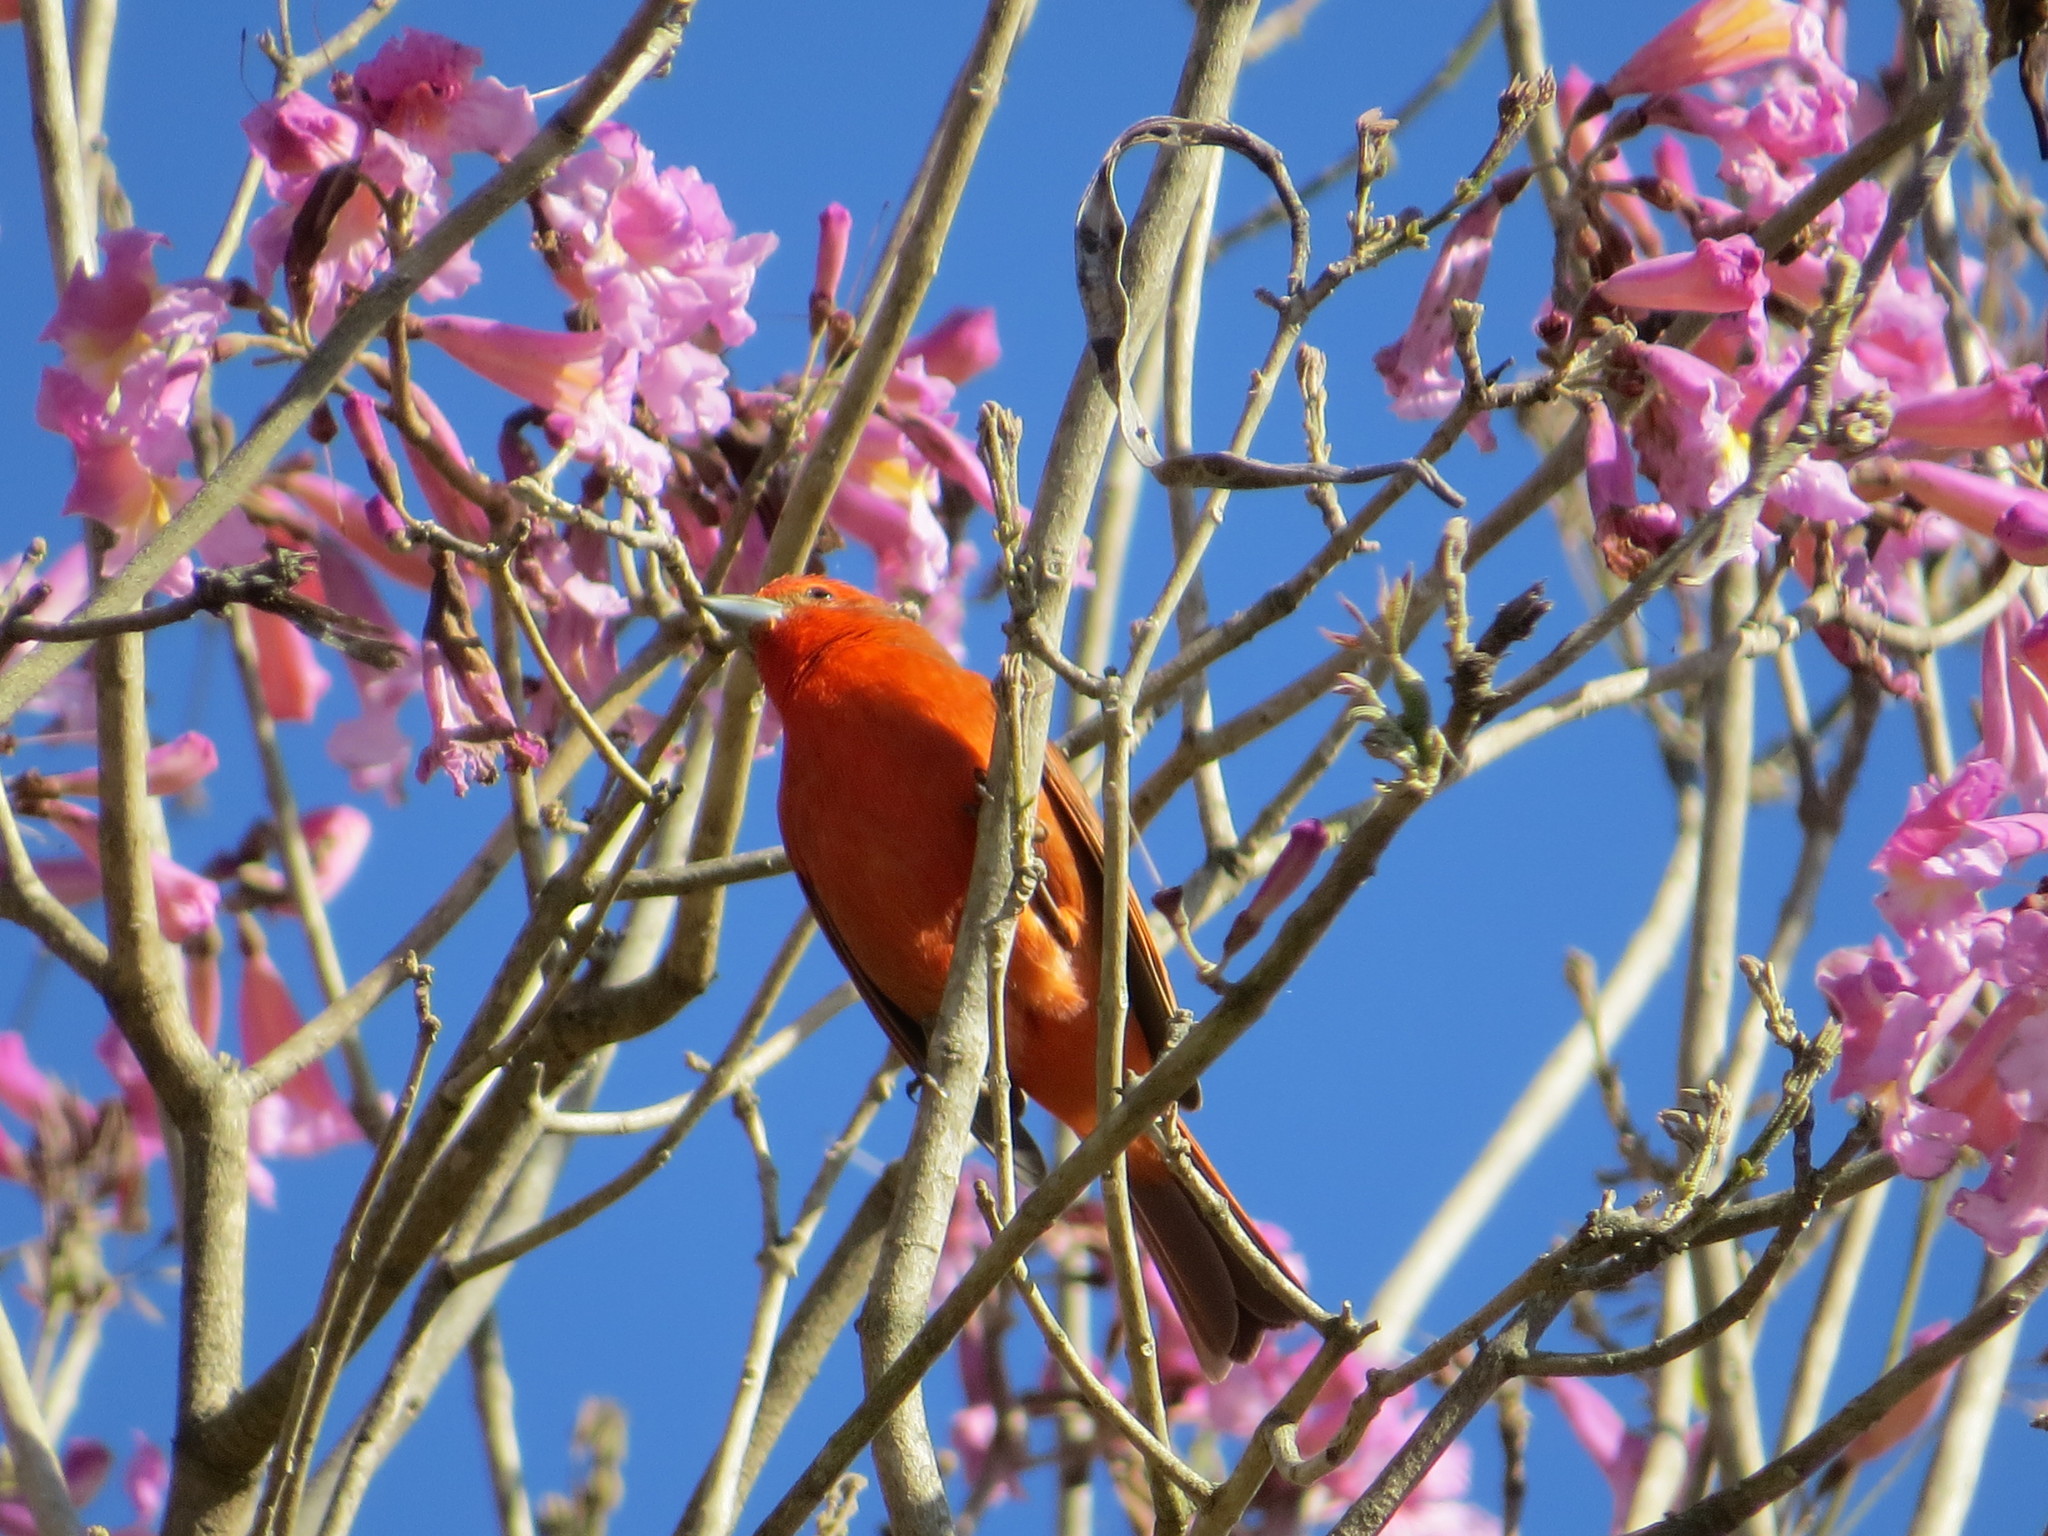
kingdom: Animalia
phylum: Chordata
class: Aves
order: Passeriformes
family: Cardinalidae
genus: Piranga
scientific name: Piranga flava
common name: Red tanager
